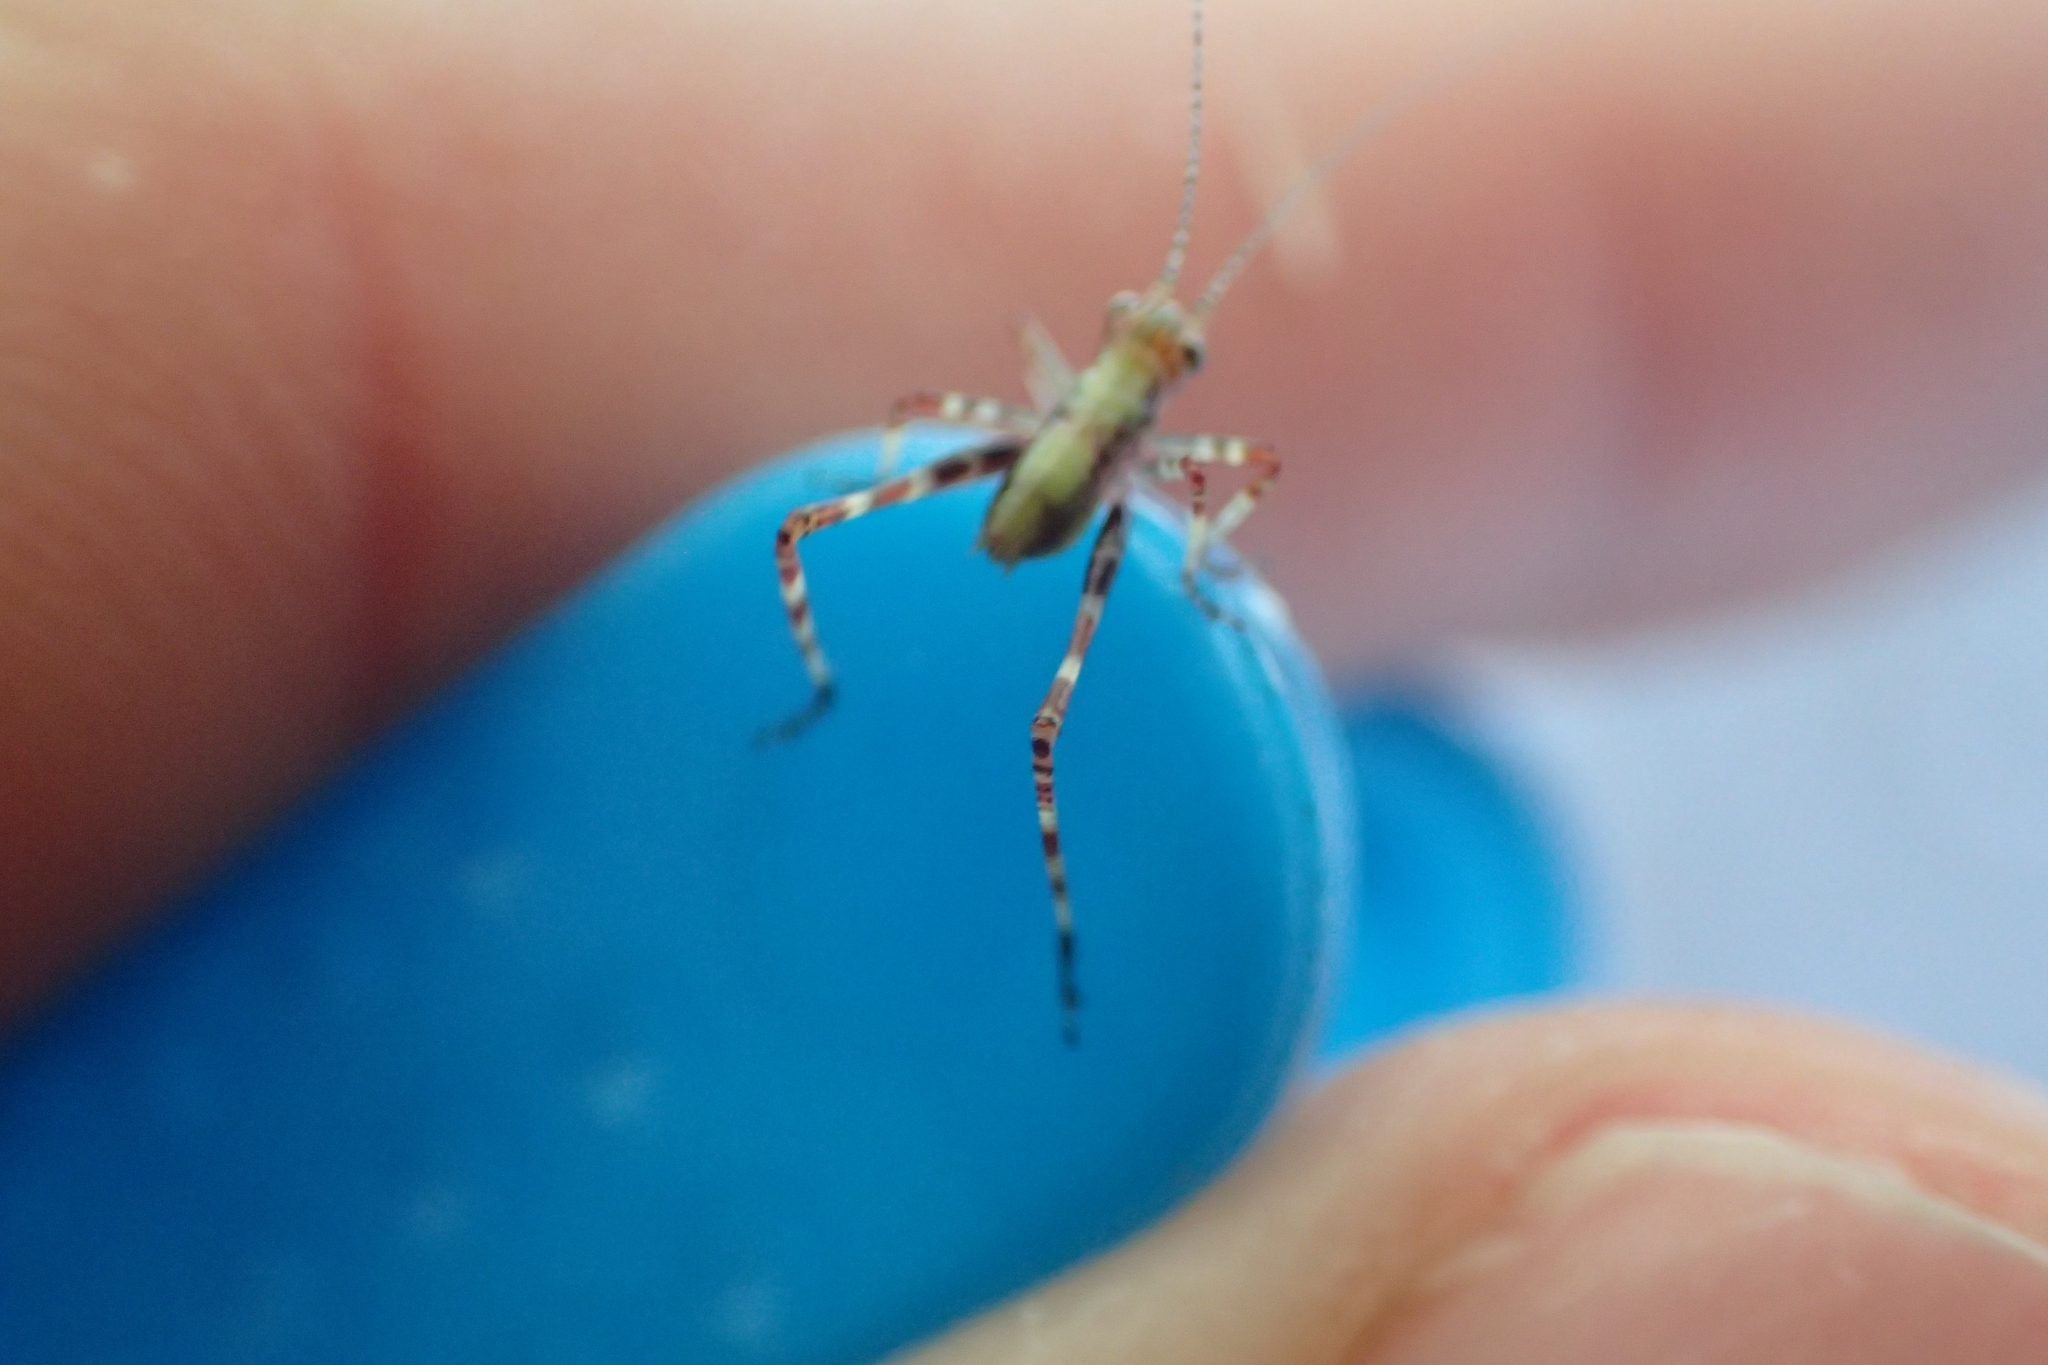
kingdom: Animalia
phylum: Arthropoda
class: Insecta
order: Orthoptera
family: Tettigoniidae
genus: Caedicia
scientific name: Caedicia simplex
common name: Common garden katydid
